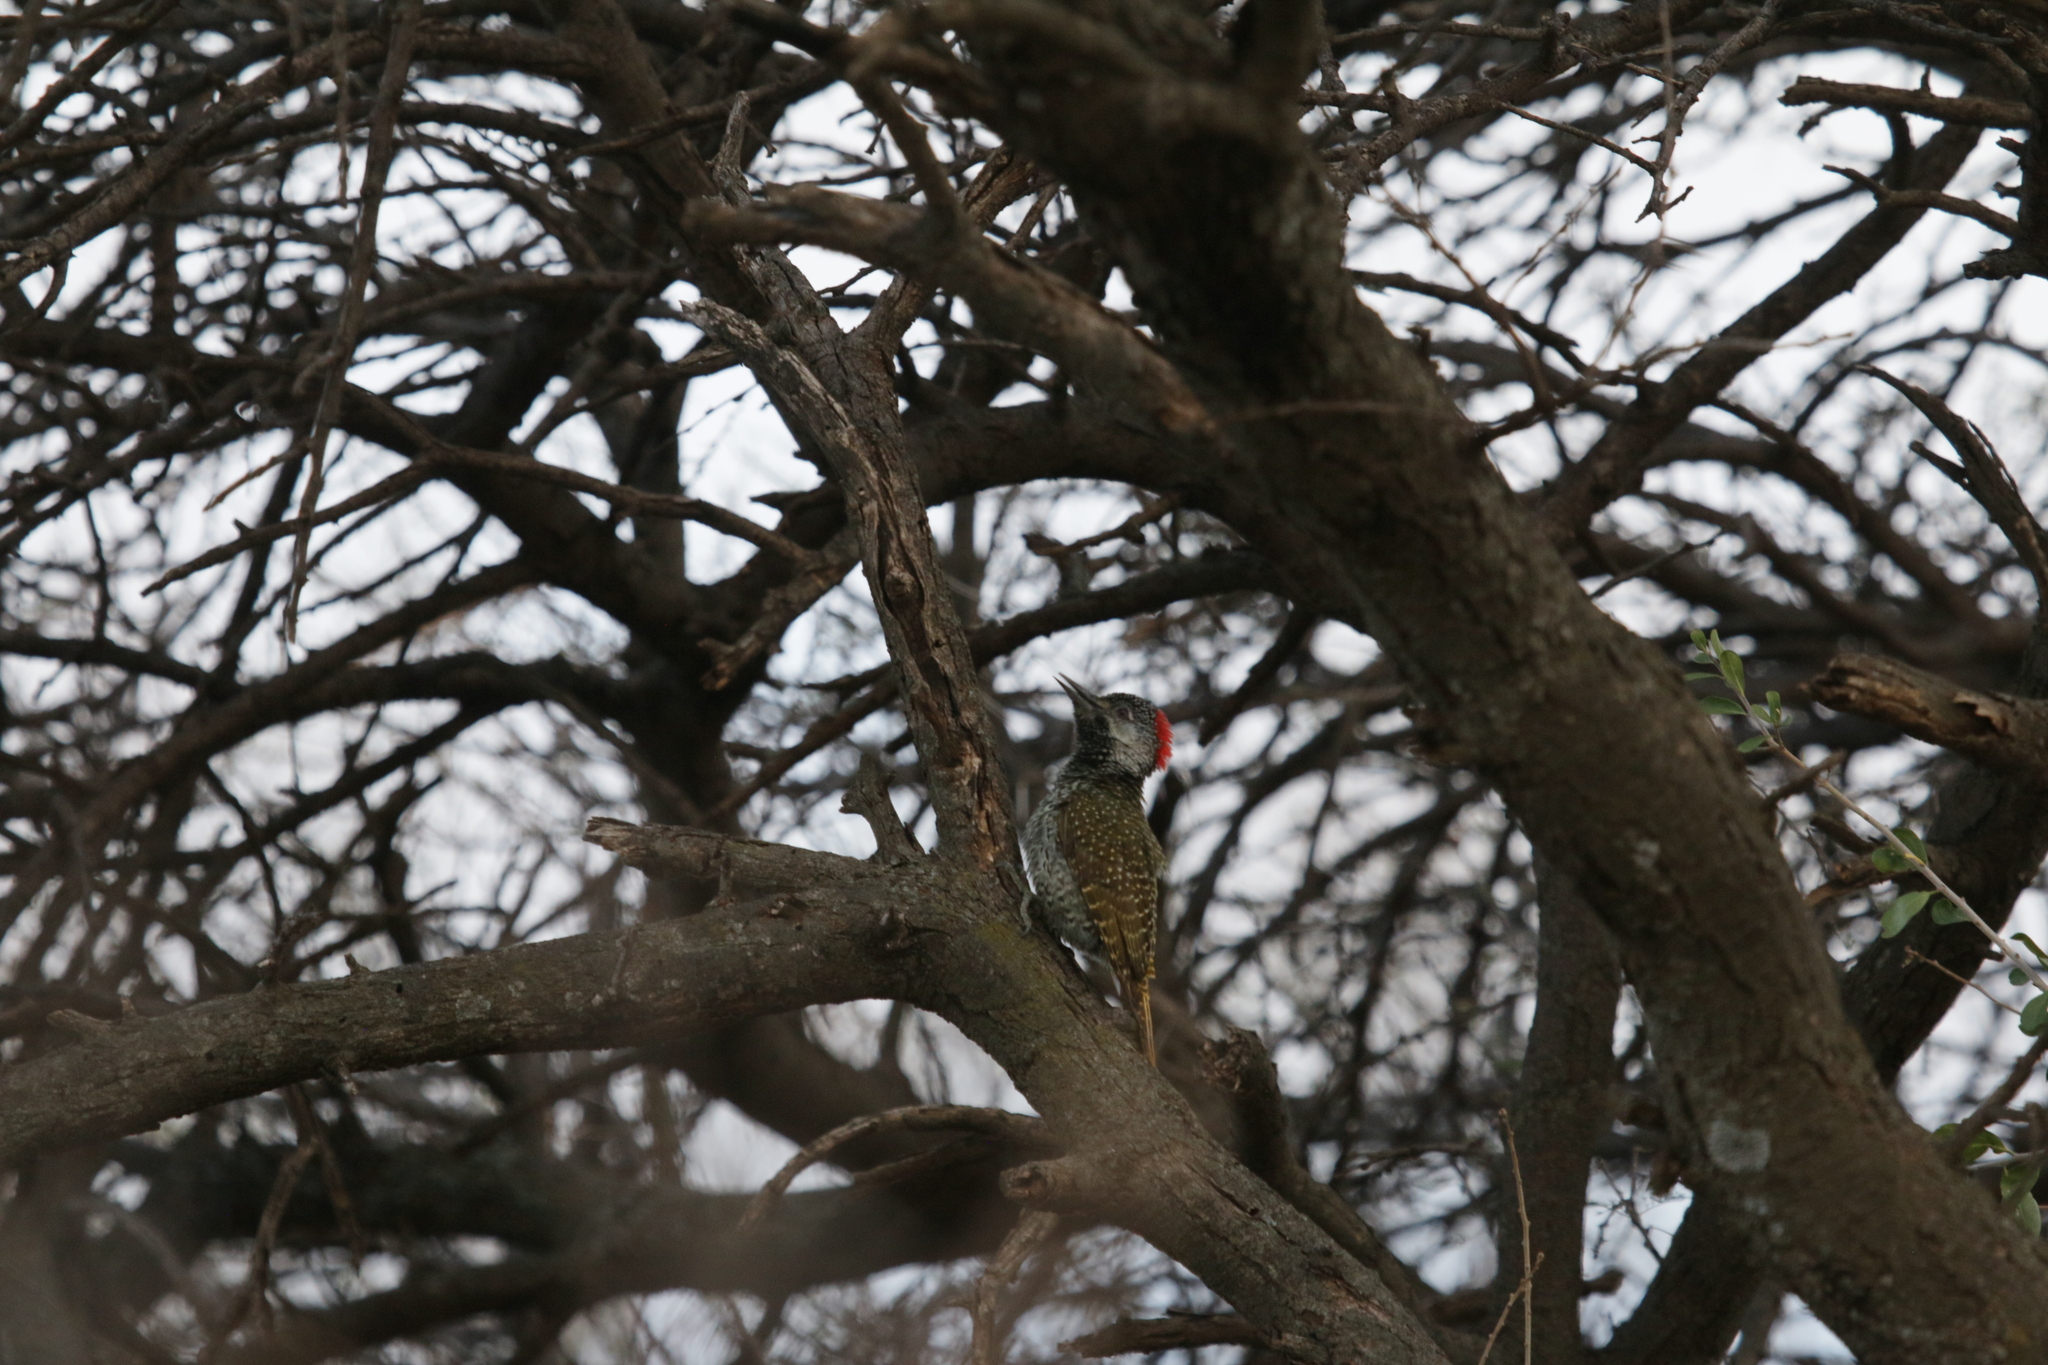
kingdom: Animalia
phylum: Chordata
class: Aves
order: Piciformes
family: Picidae
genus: Campethera
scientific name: Campethera abingoni
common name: Golden-tailed woodpecker
